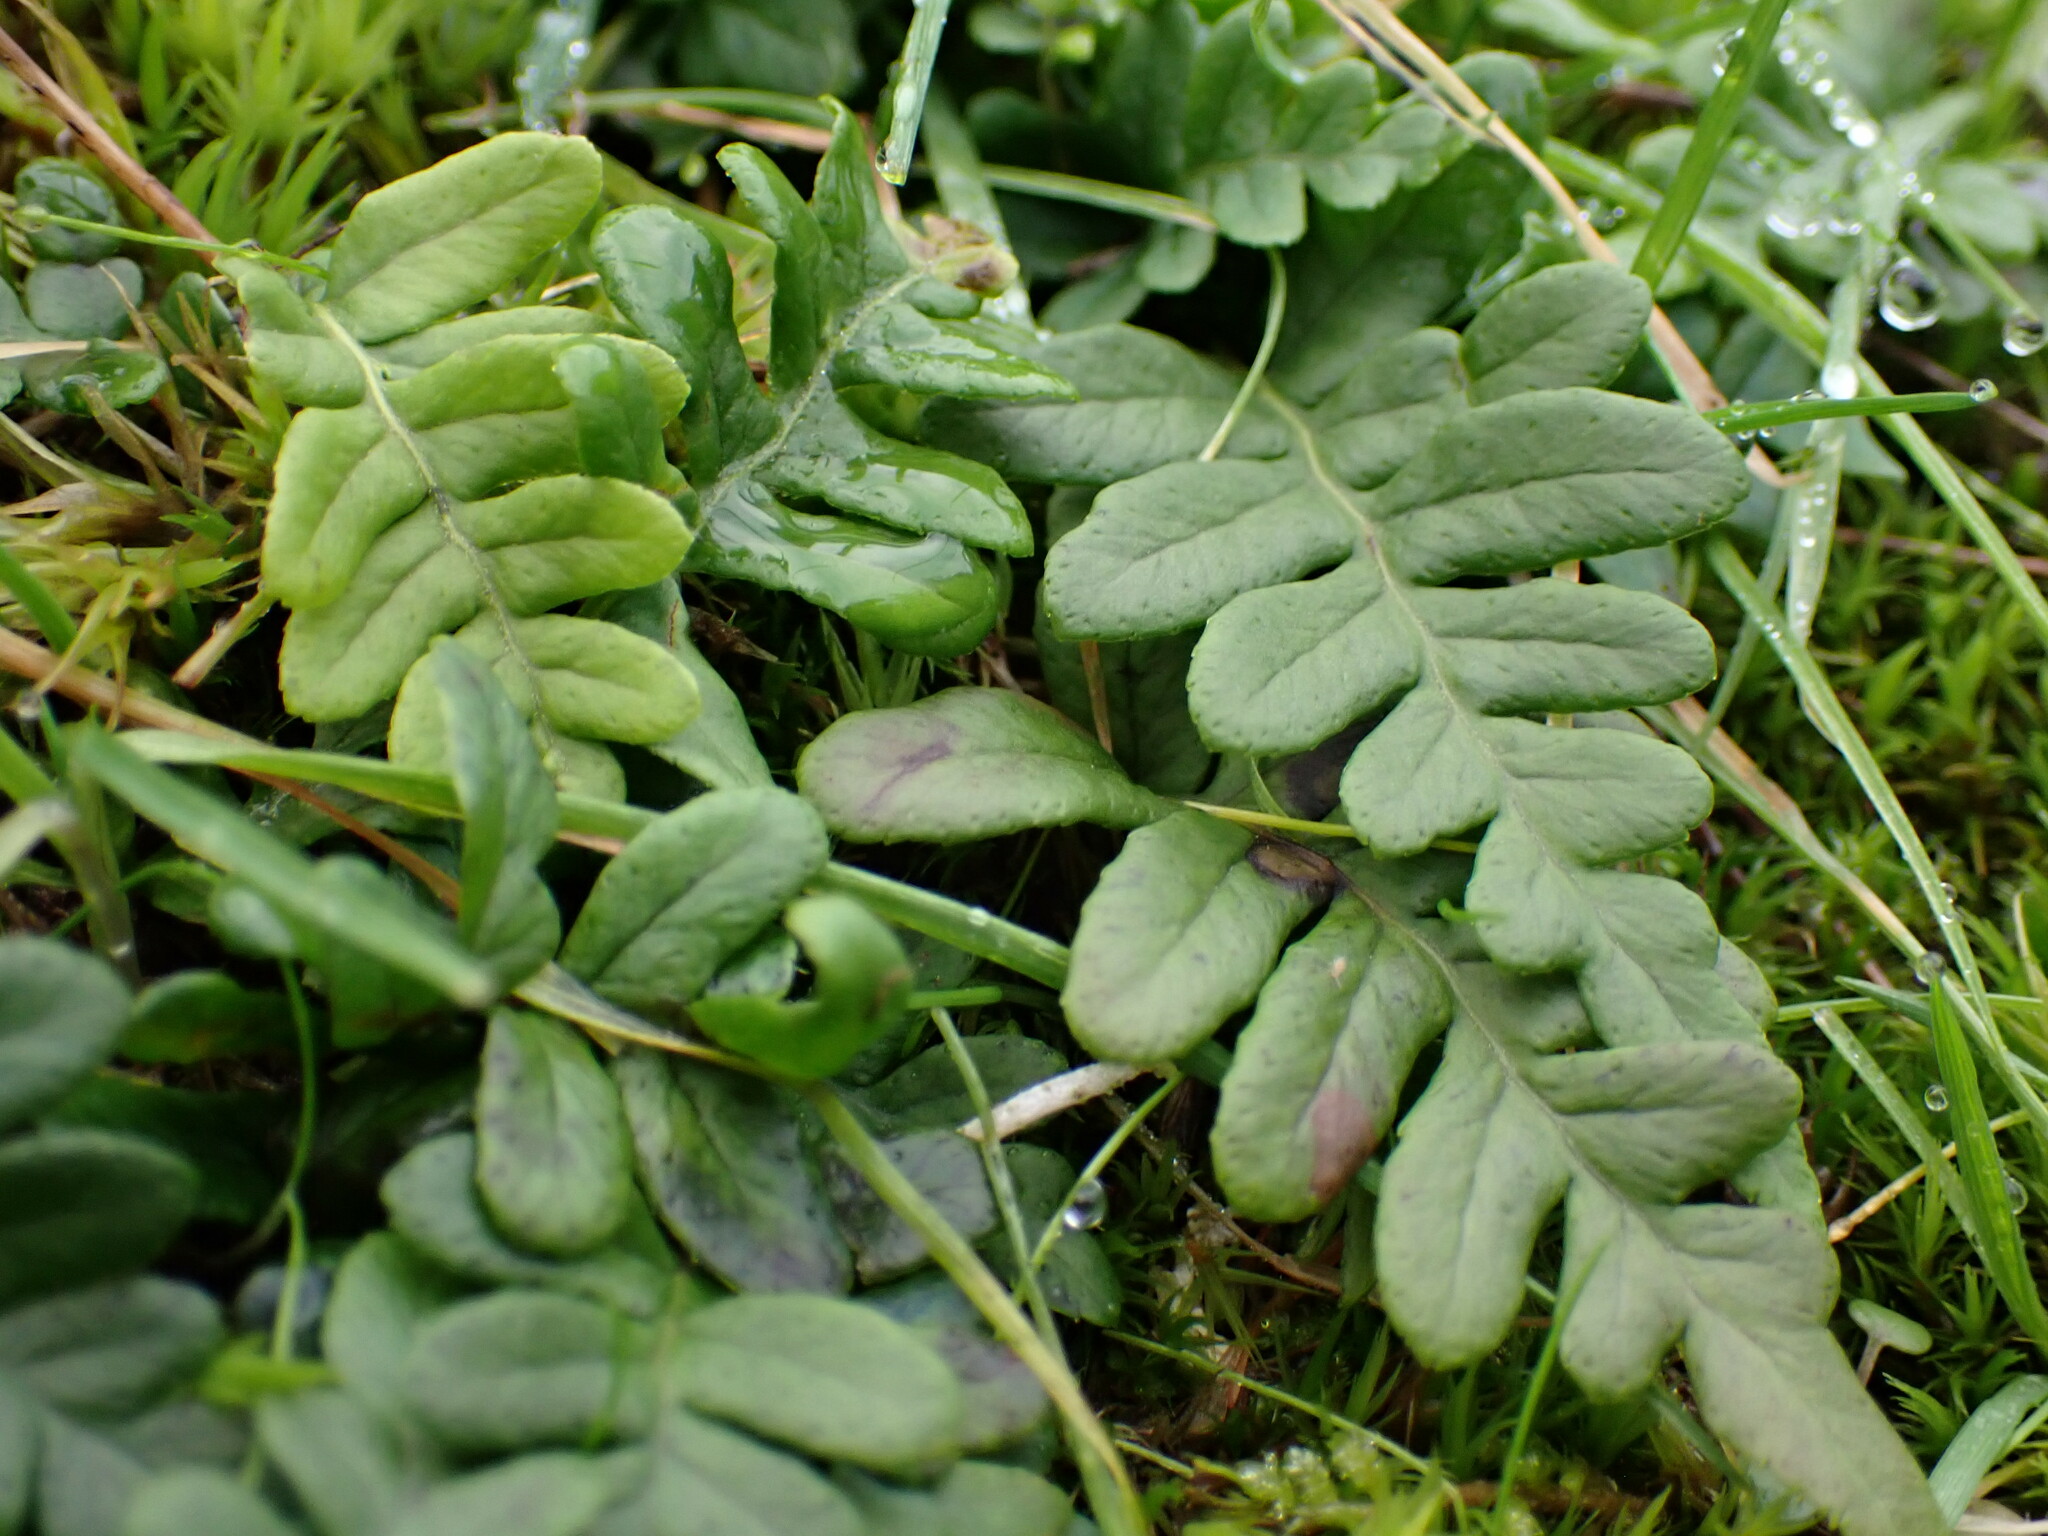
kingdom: Plantae
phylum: Tracheophyta
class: Polypodiopsida
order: Polypodiales
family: Polypodiaceae
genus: Polypodium
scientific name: Polypodium glycyrrhiza
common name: Licorice fern
